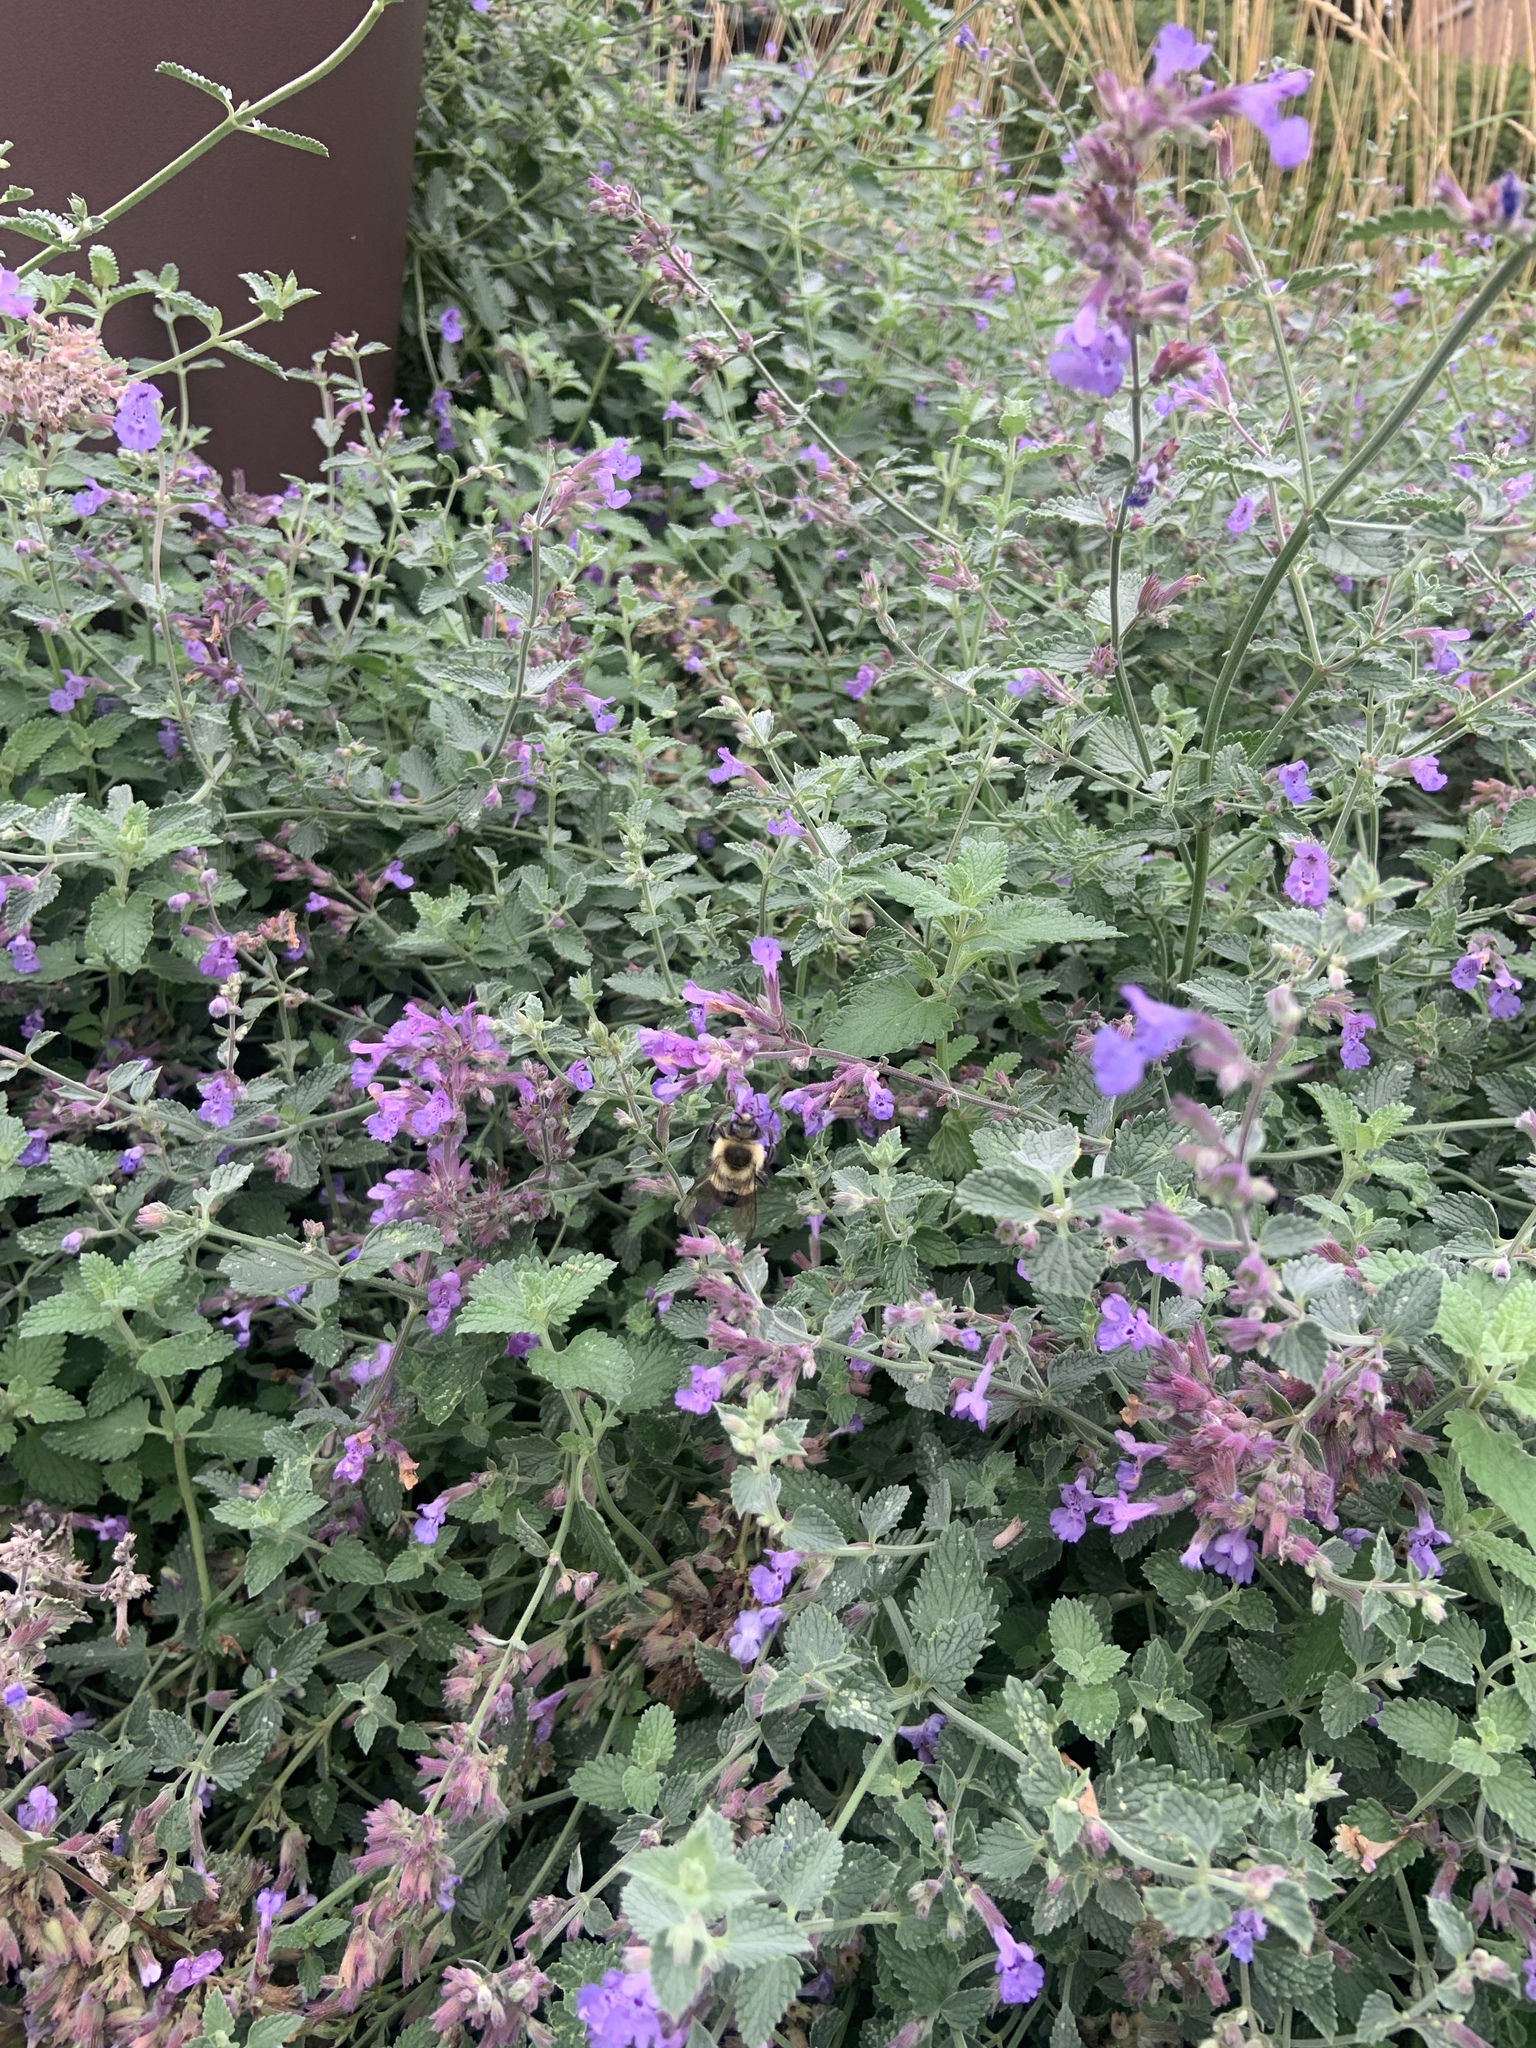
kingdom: Animalia
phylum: Arthropoda
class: Insecta
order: Hymenoptera
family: Apidae
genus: Bombus
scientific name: Bombus impatiens
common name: Common eastern bumble bee
